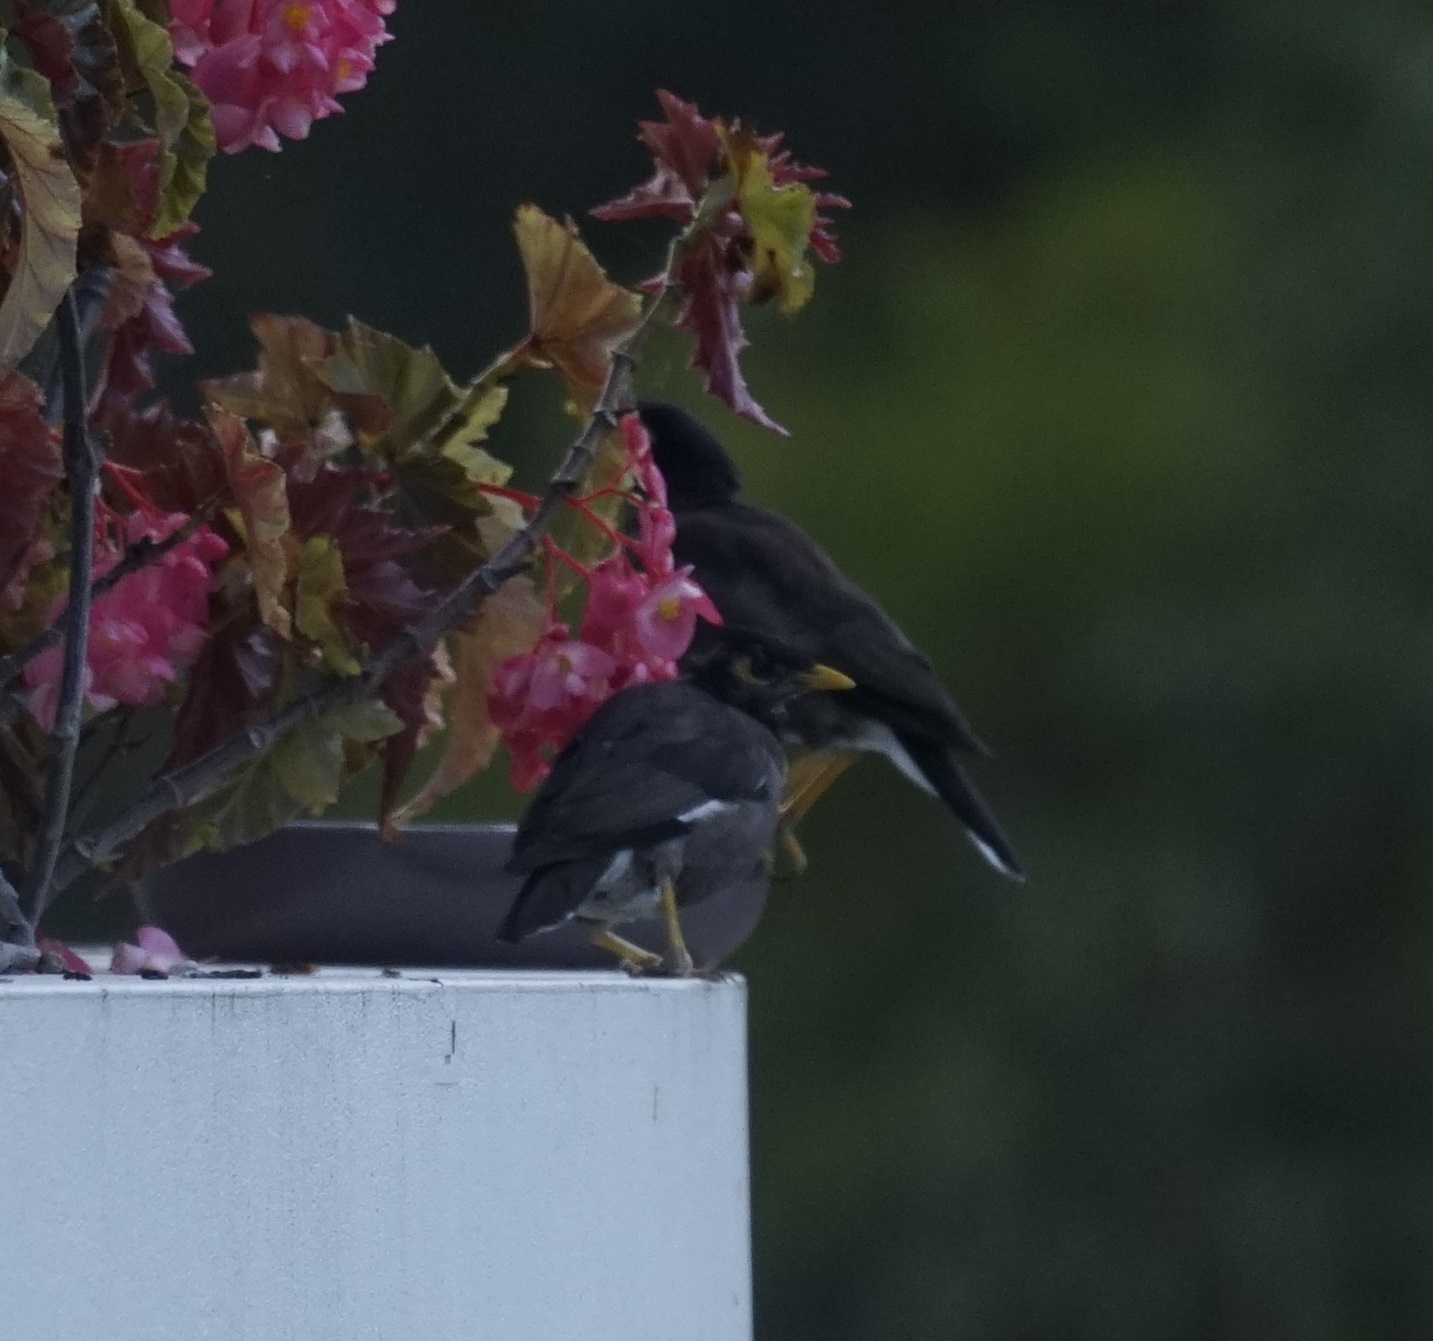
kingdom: Animalia
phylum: Chordata
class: Aves
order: Passeriformes
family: Sturnidae
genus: Acridotheres
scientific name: Acridotheres tristis
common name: Common myna
